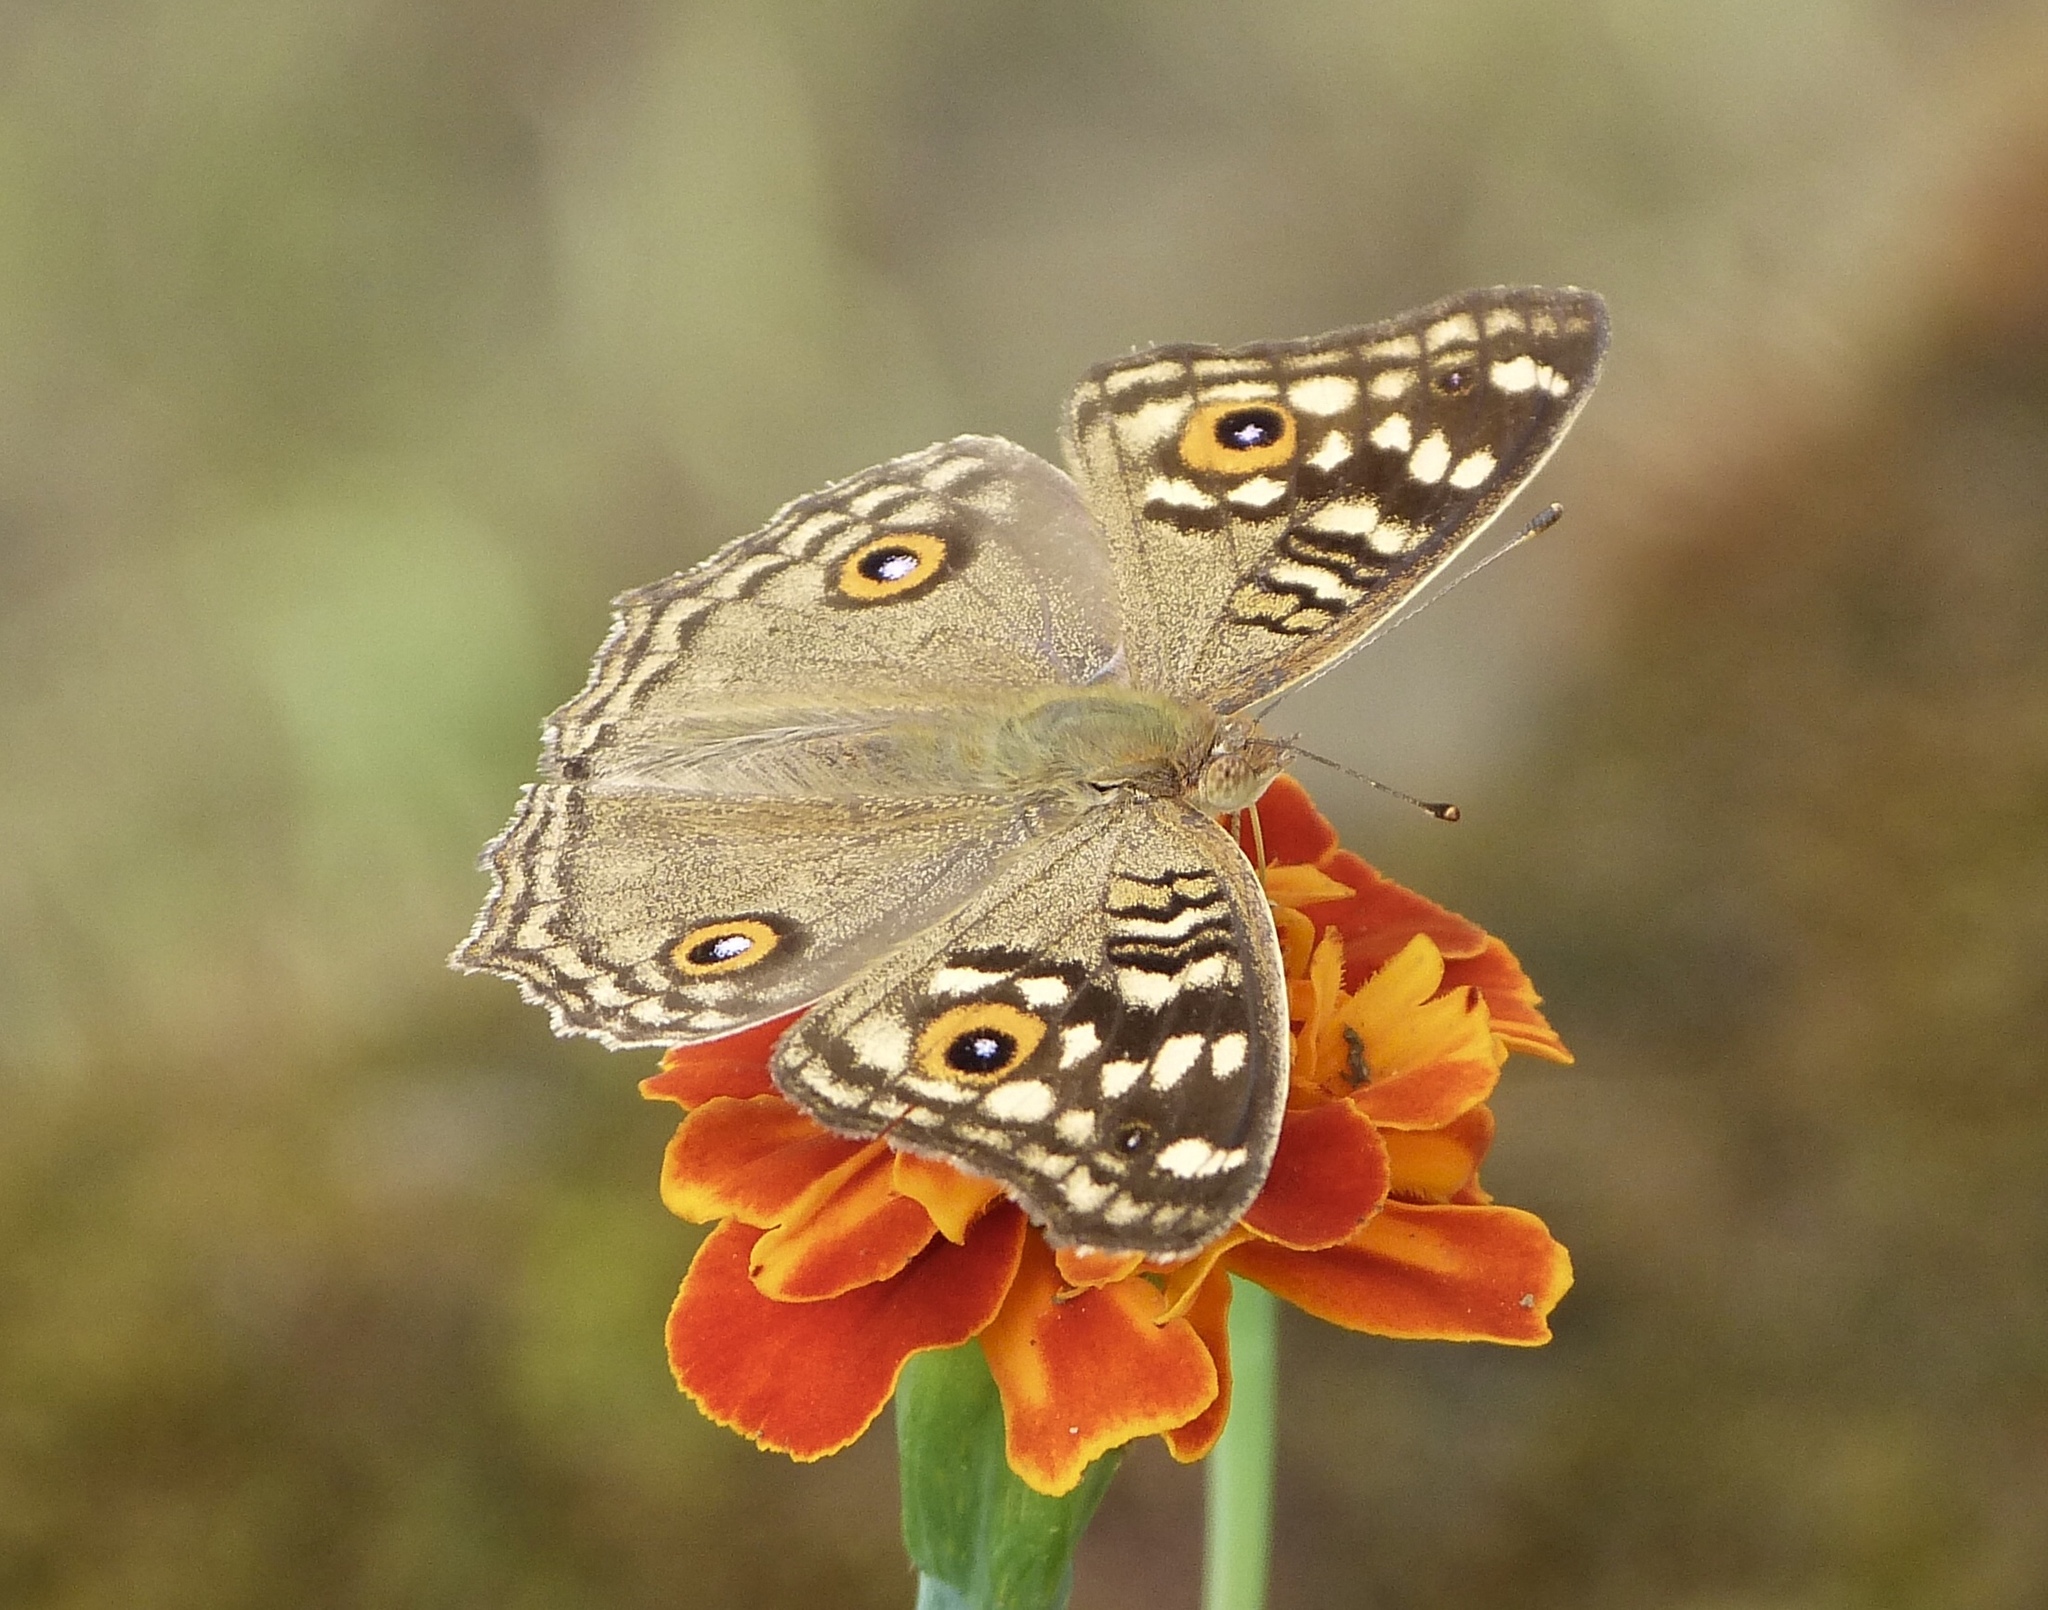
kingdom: Animalia
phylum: Arthropoda
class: Insecta
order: Lepidoptera
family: Nymphalidae
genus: Junonia
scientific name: Junonia lemonias
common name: Lemon pansy
